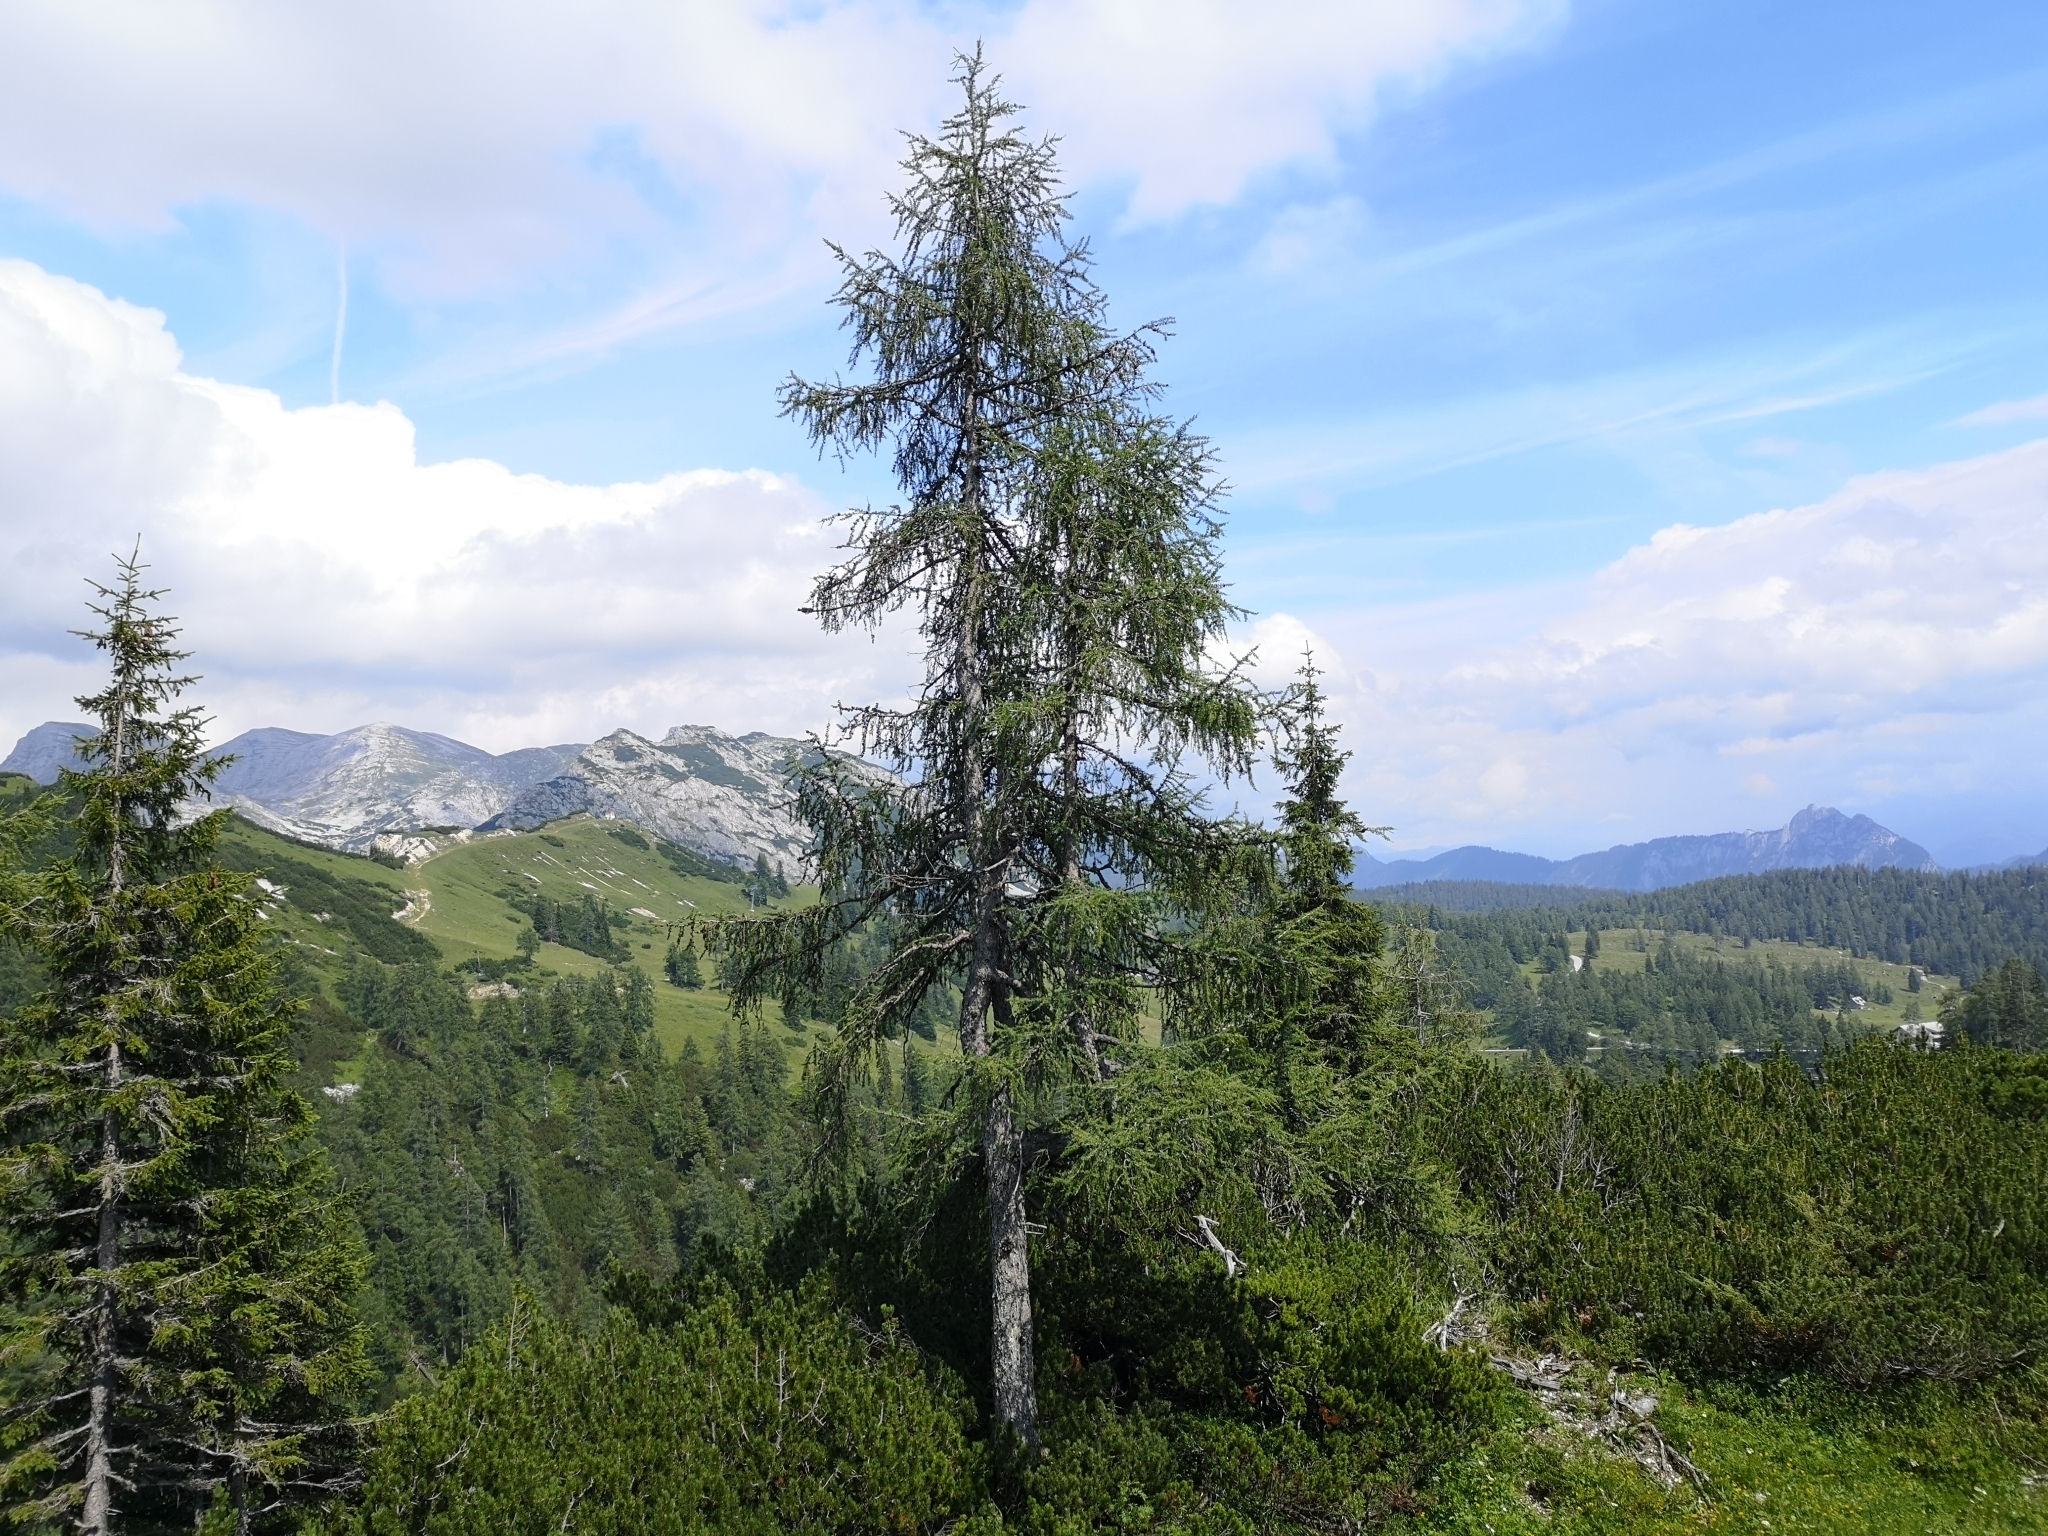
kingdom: Plantae
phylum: Tracheophyta
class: Pinopsida
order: Pinales
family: Pinaceae
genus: Larix
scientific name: Larix decidua
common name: European larch
